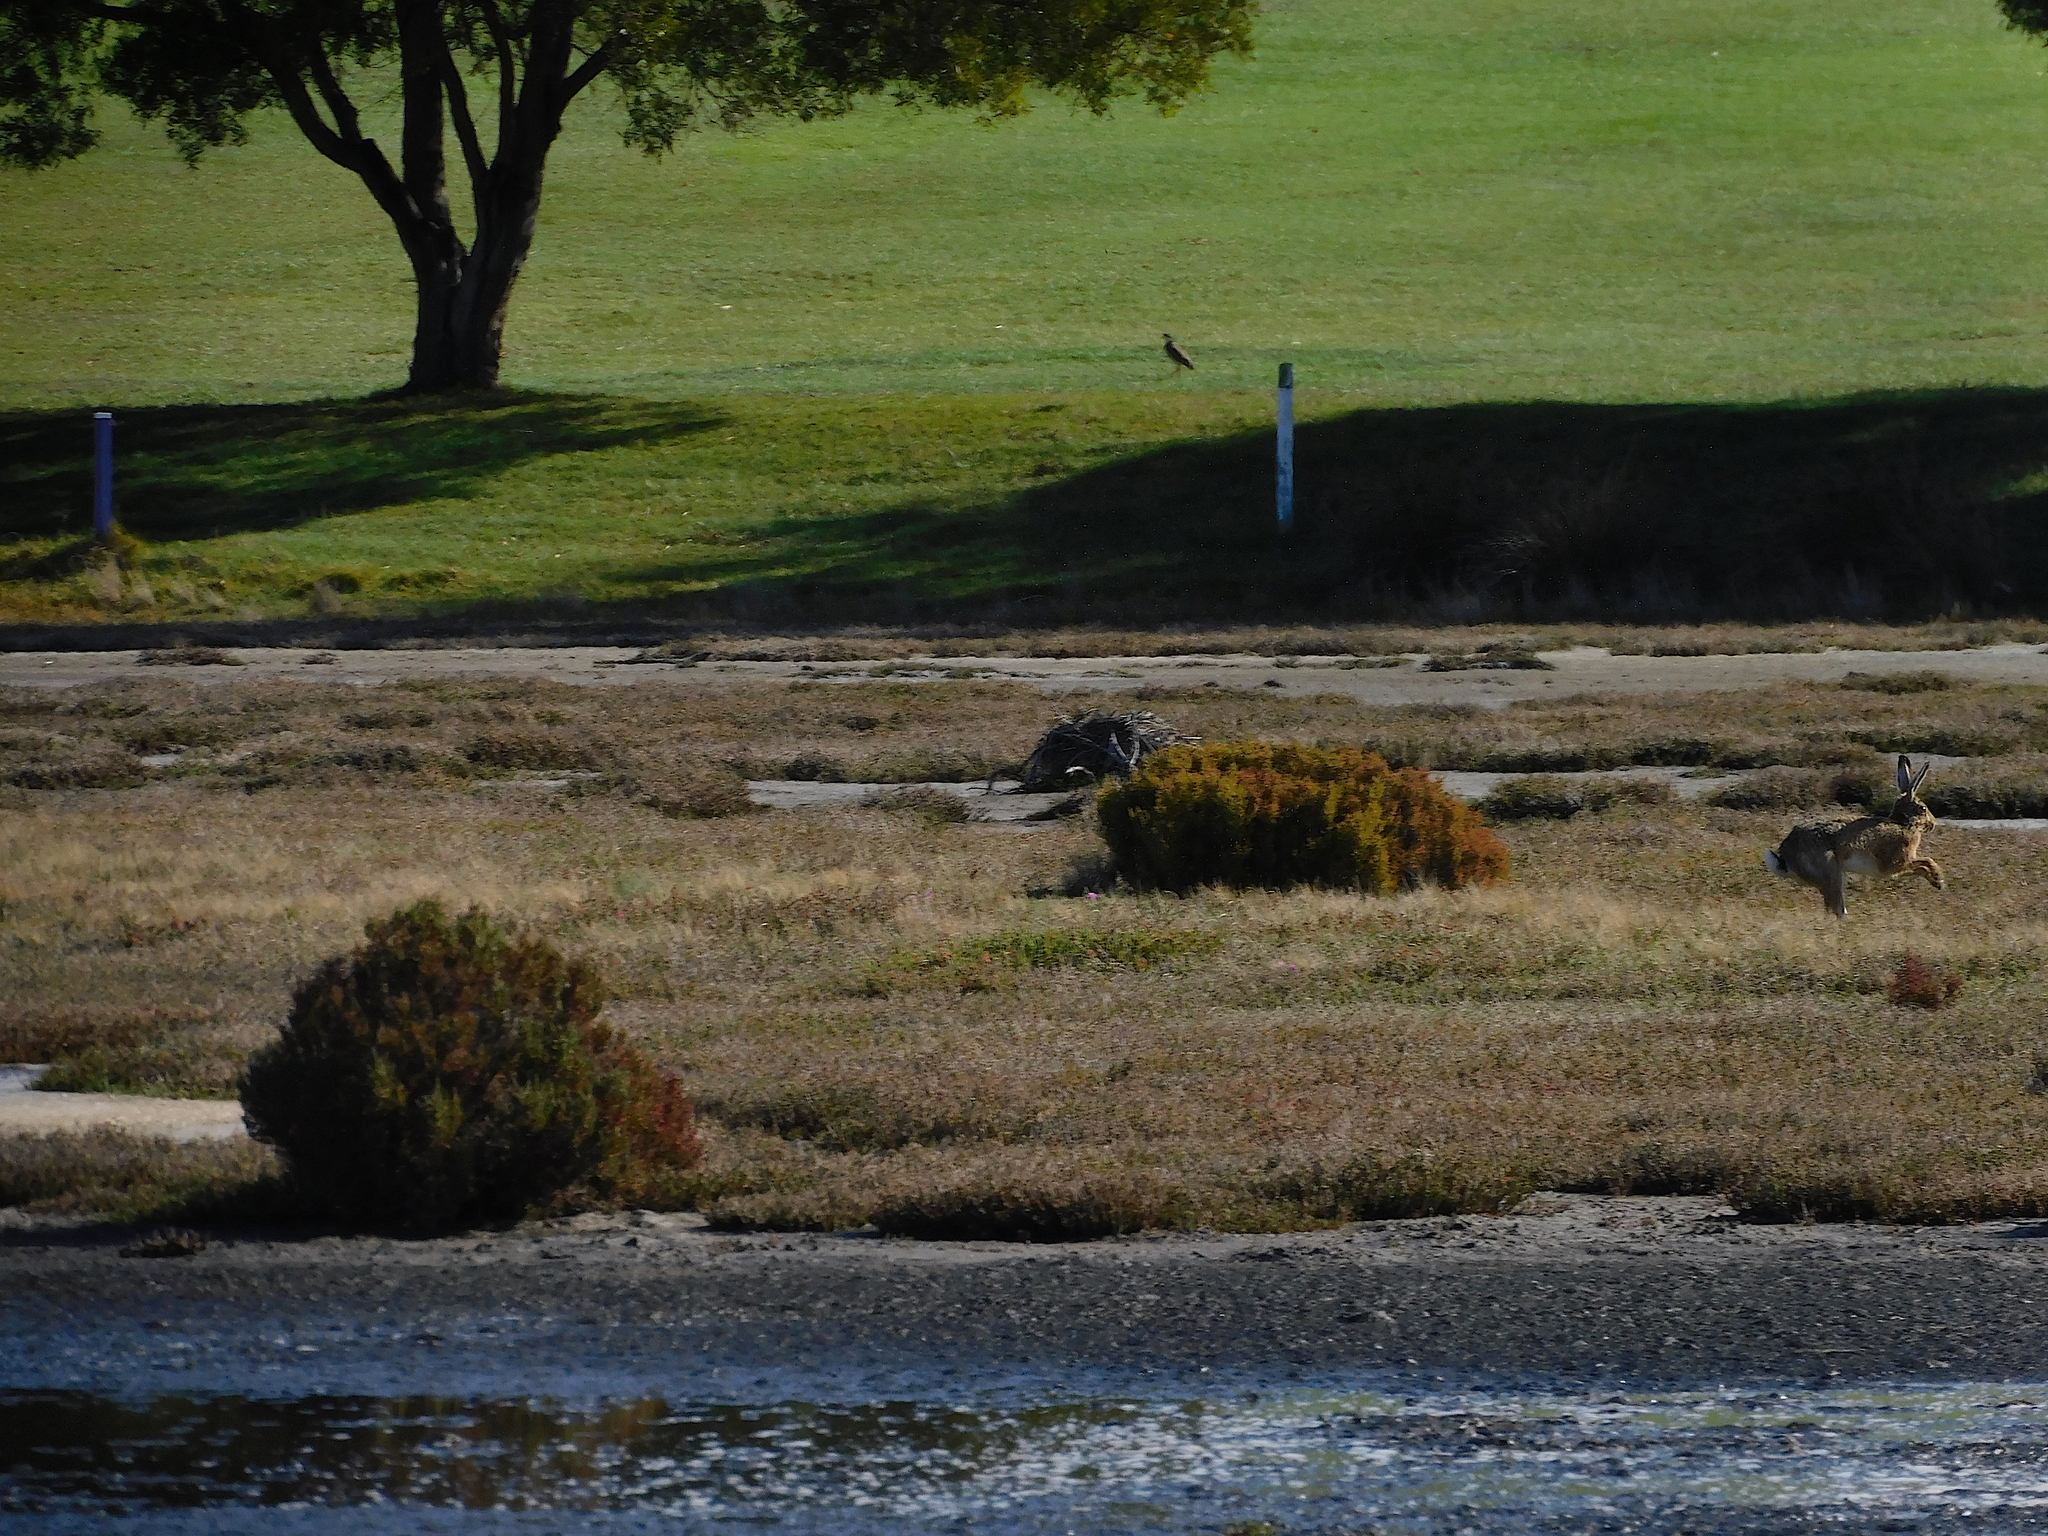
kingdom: Animalia
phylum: Chordata
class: Mammalia
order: Lagomorpha
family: Leporidae
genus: Lepus
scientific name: Lepus europaeus
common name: European hare
